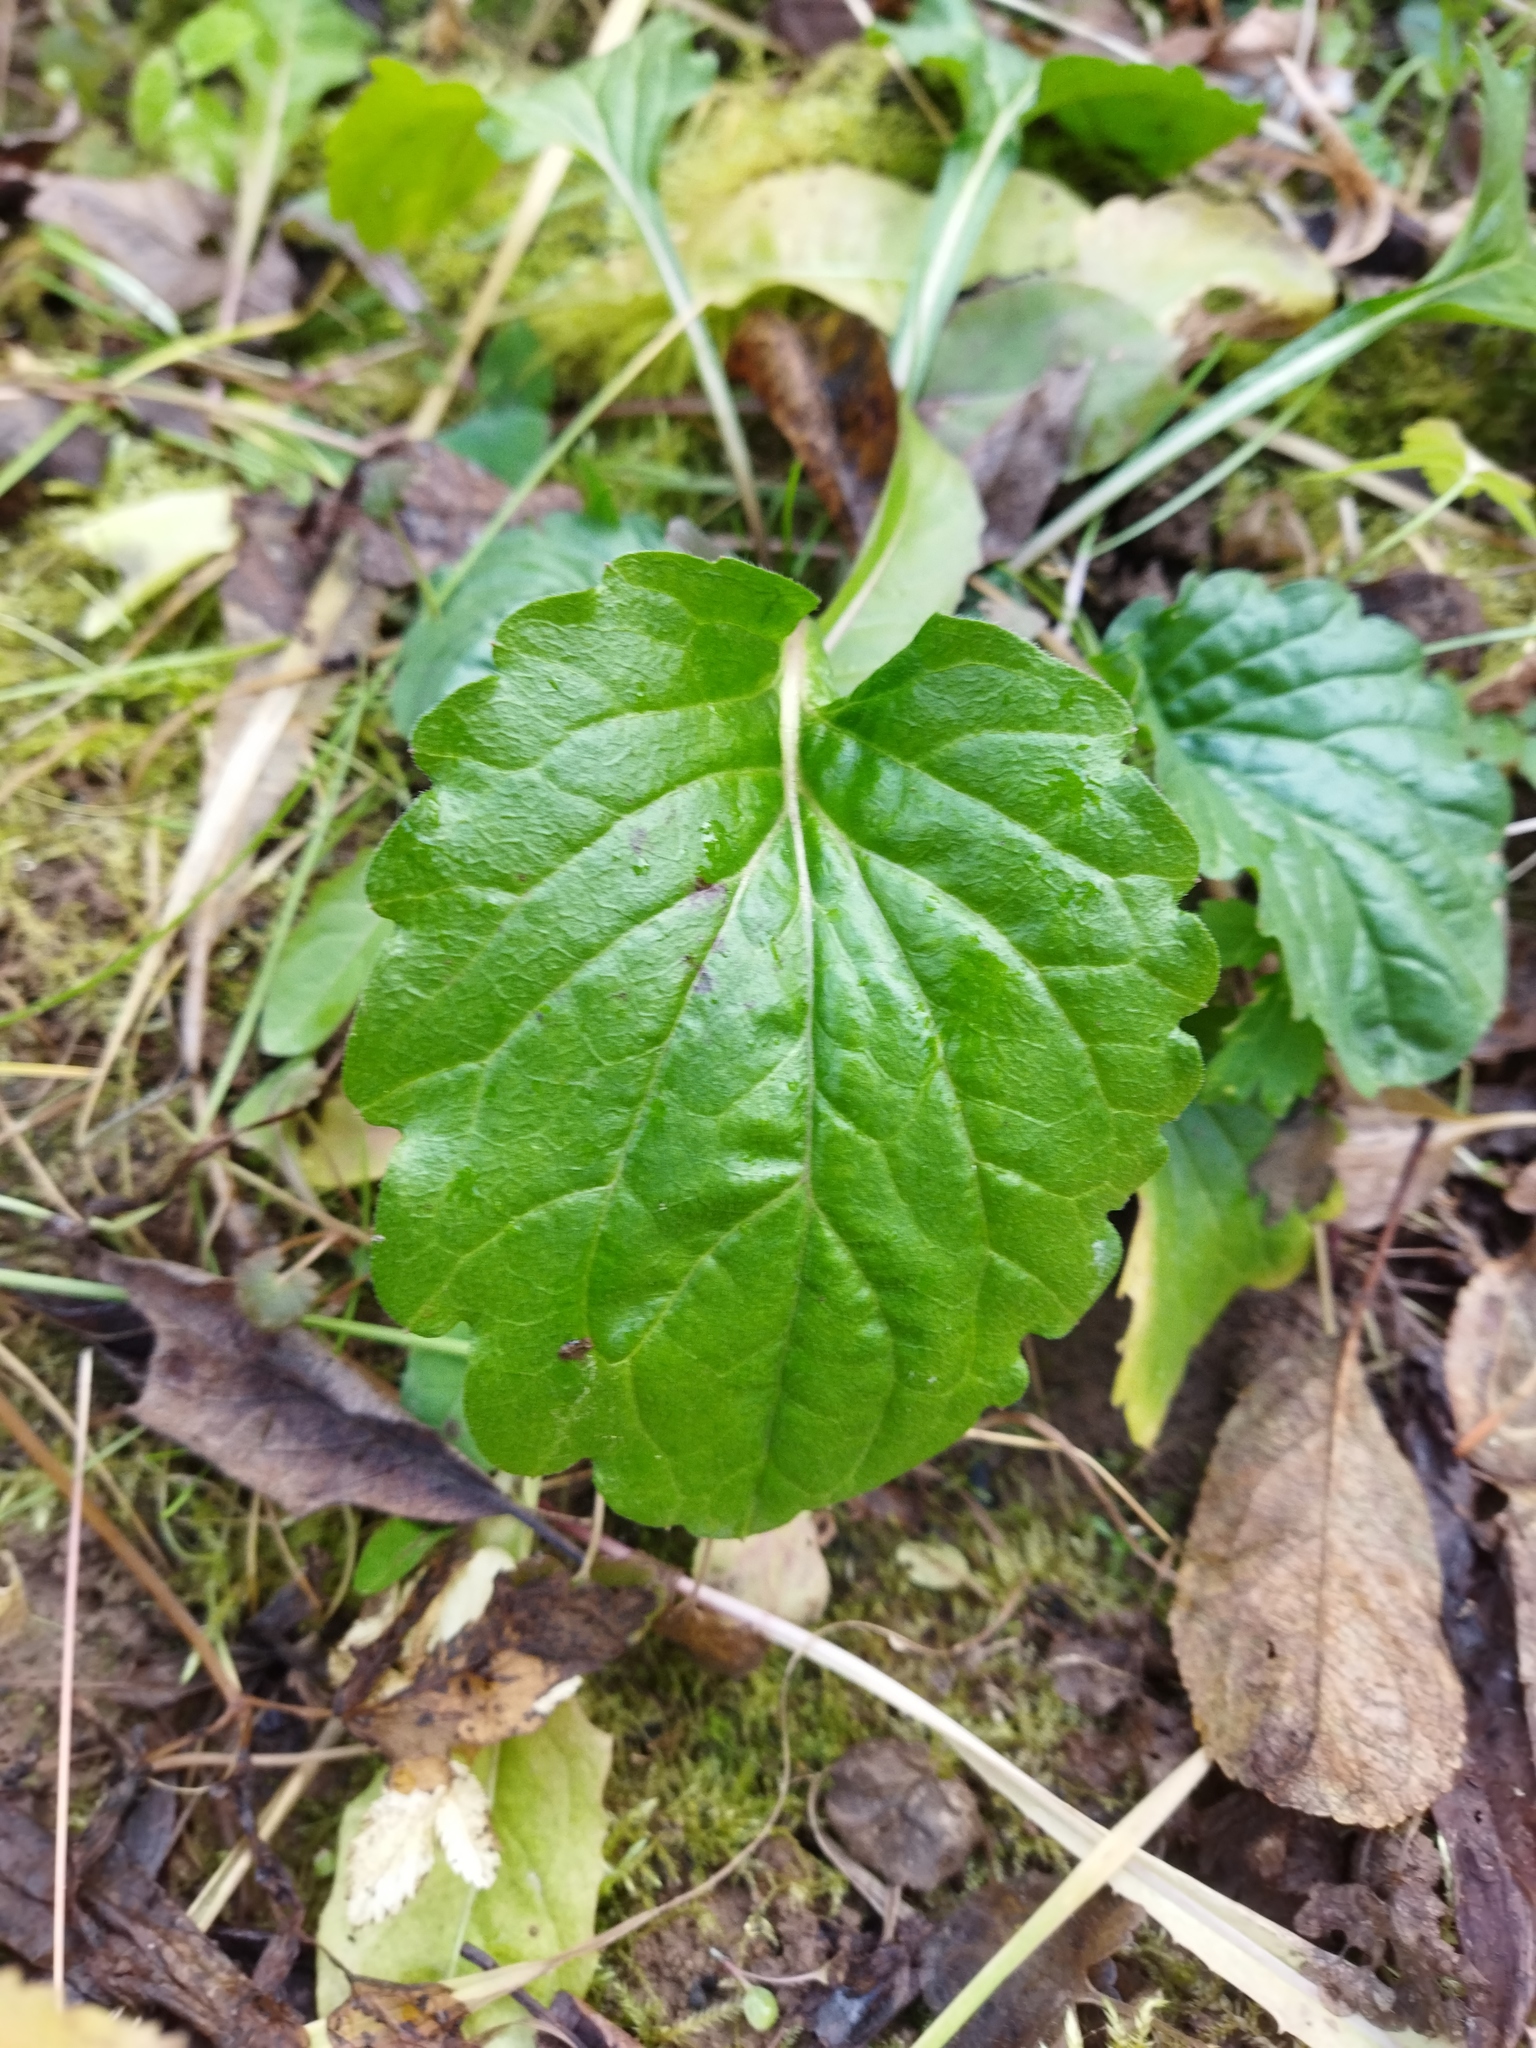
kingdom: Plantae
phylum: Tracheophyta
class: Magnoliopsida
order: Asterales
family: Asteraceae
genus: Erigeron
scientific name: Erigeron annuus
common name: Tall fleabane
